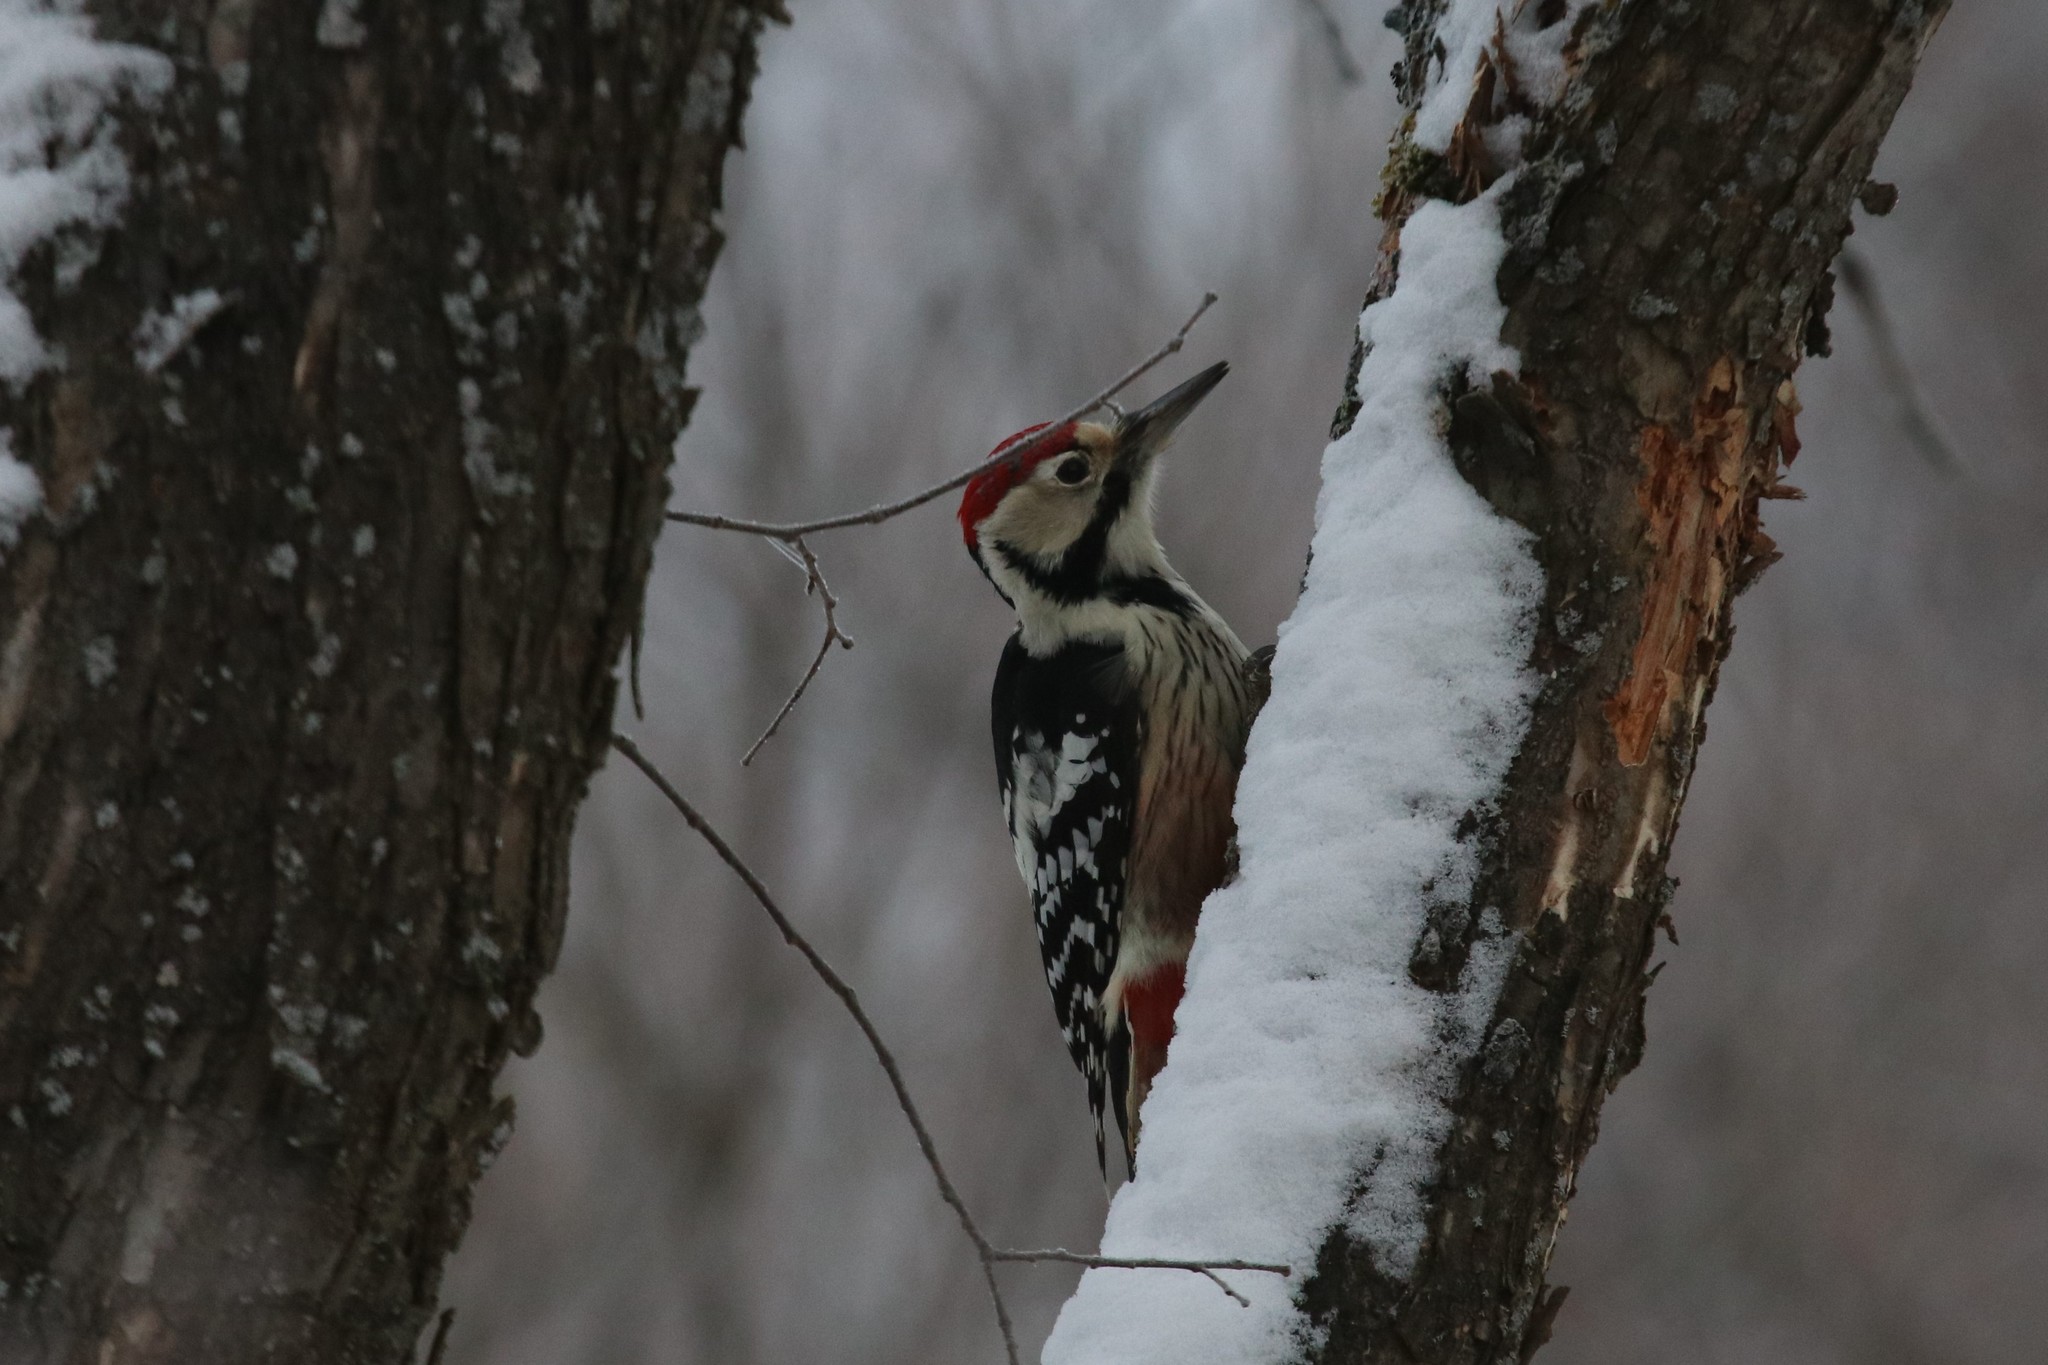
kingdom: Animalia
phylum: Chordata
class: Aves
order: Piciformes
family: Picidae
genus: Dendrocopos
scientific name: Dendrocopos leucotos
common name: White-backed woodpecker
